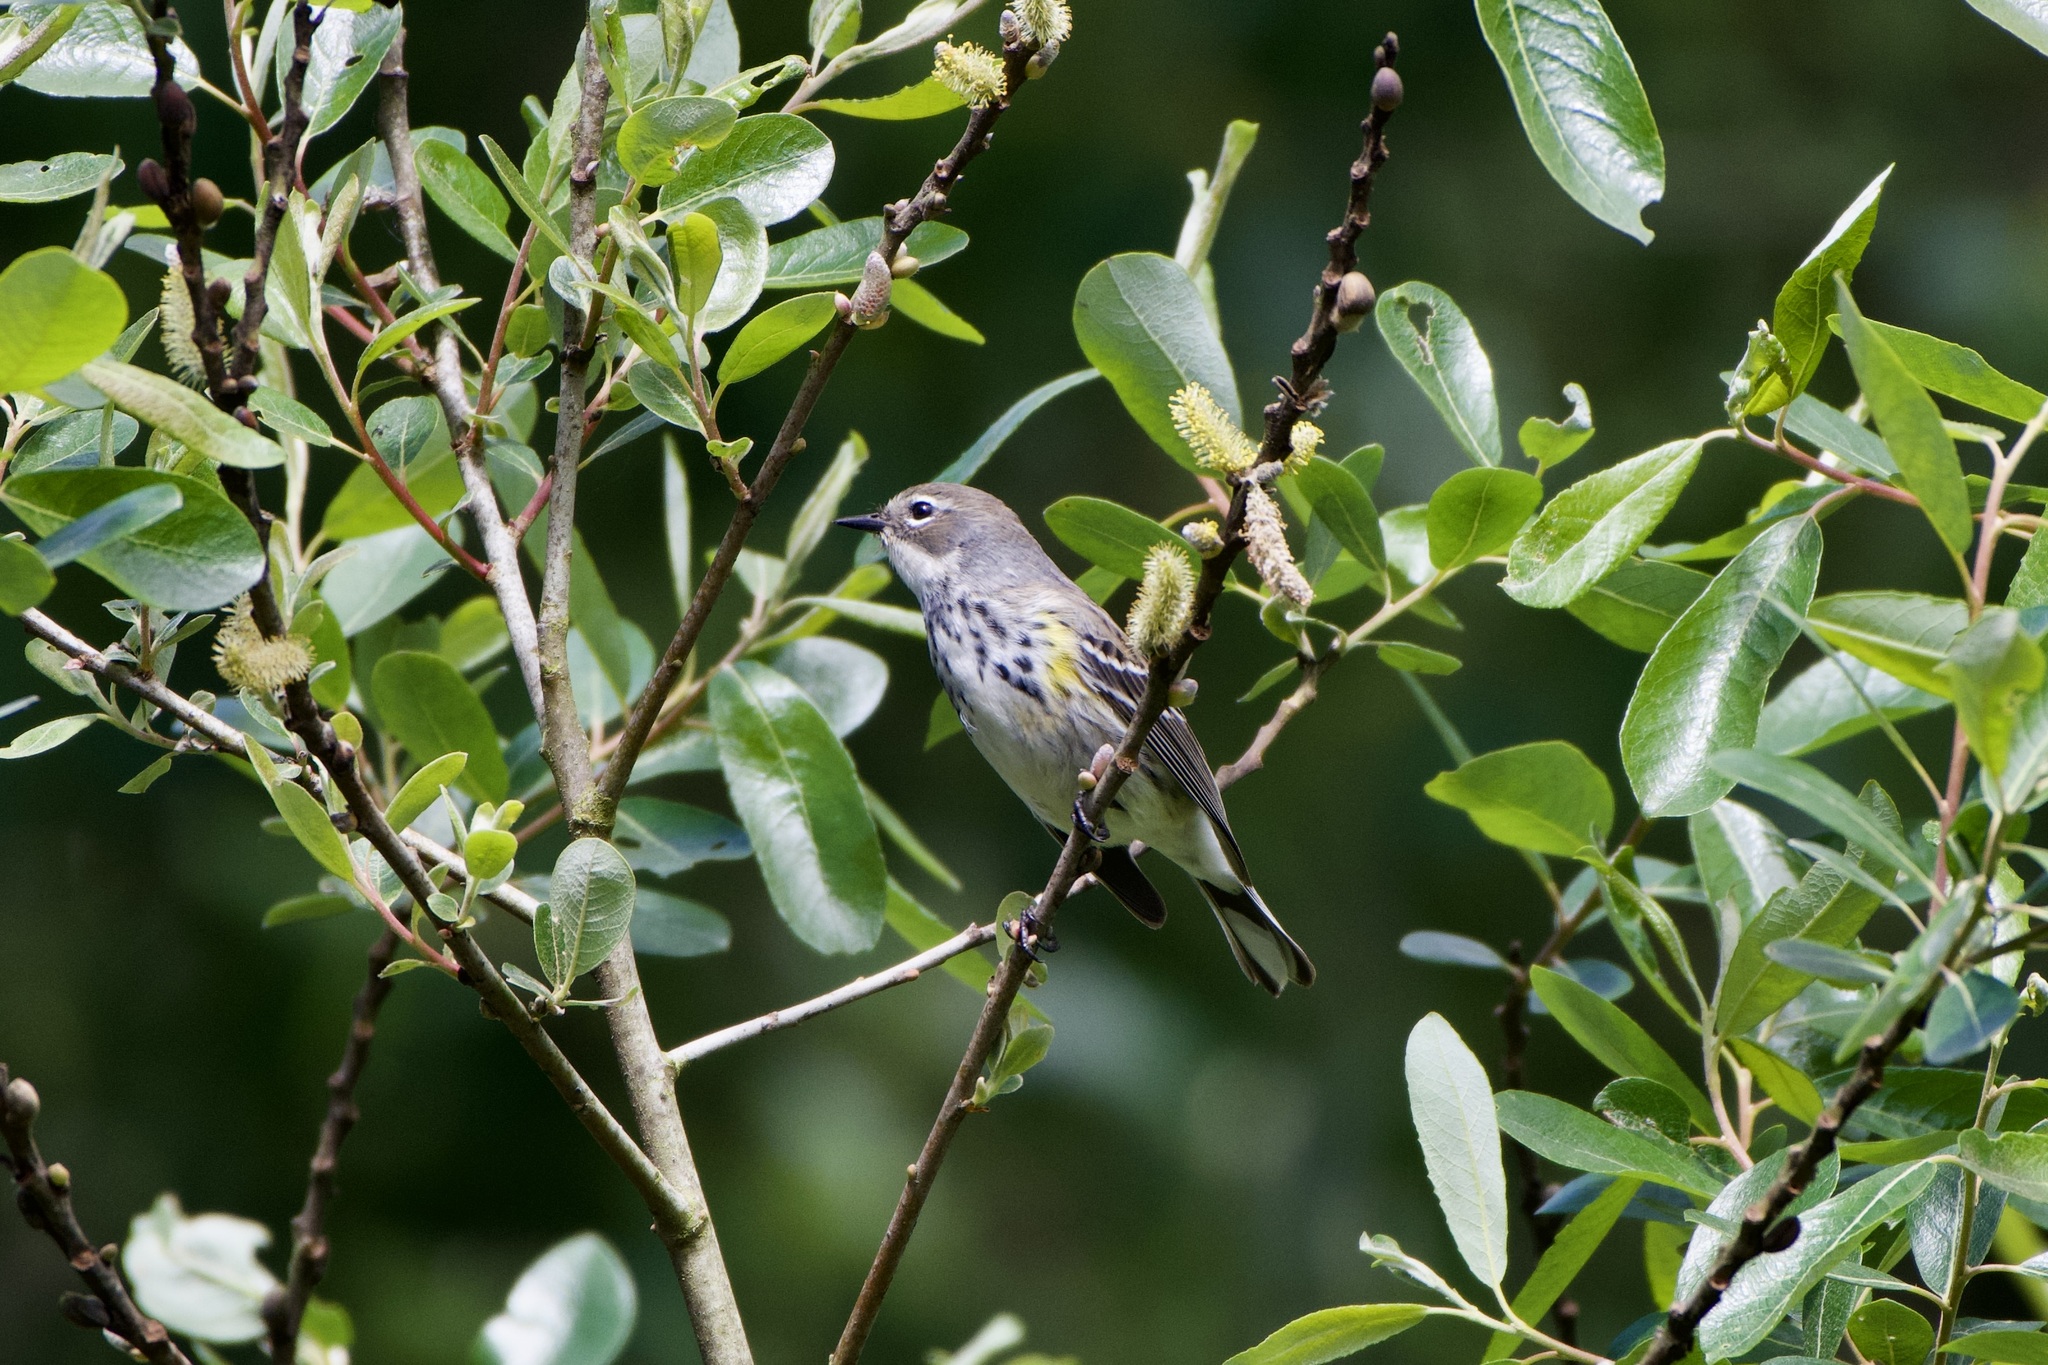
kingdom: Animalia
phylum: Chordata
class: Aves
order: Passeriformes
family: Parulidae
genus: Setophaga
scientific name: Setophaga coronata
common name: Myrtle warbler
